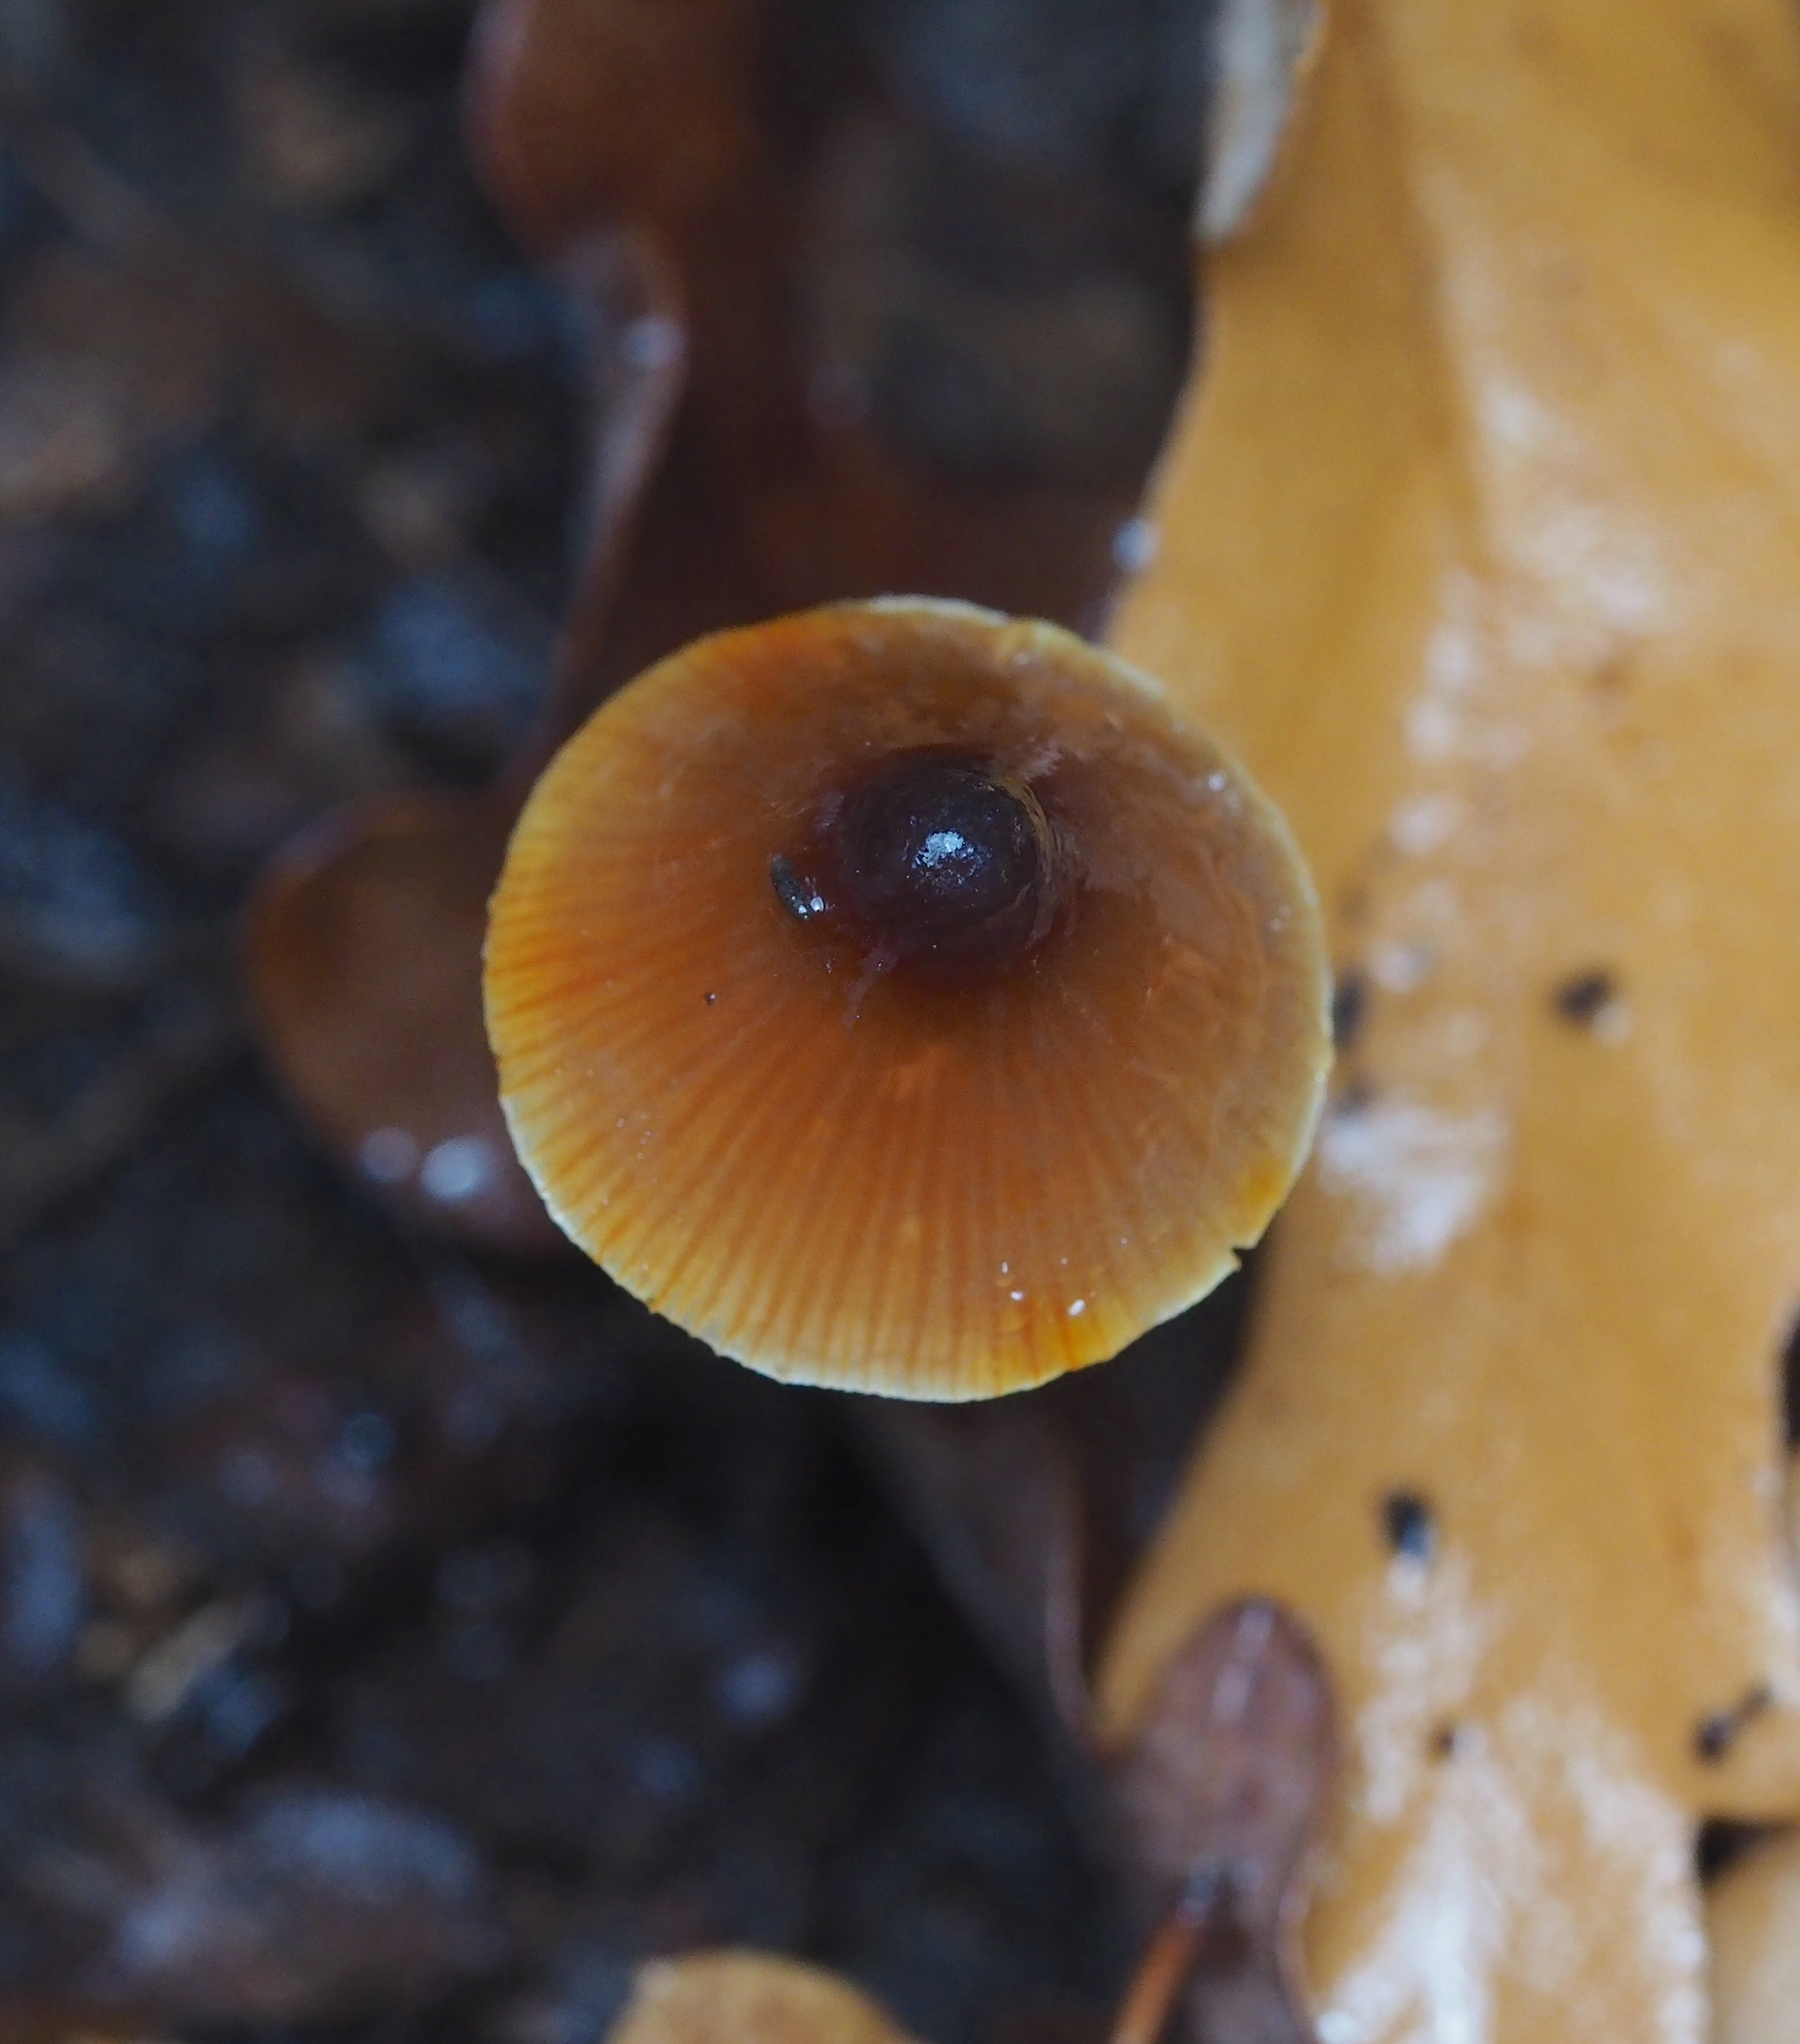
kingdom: Fungi
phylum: Basidiomycota
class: Agaricomycetes
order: Agaricales
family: Mycenaceae
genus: Mycena
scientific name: Mycena crocata
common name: Saffrondrop bonnet
